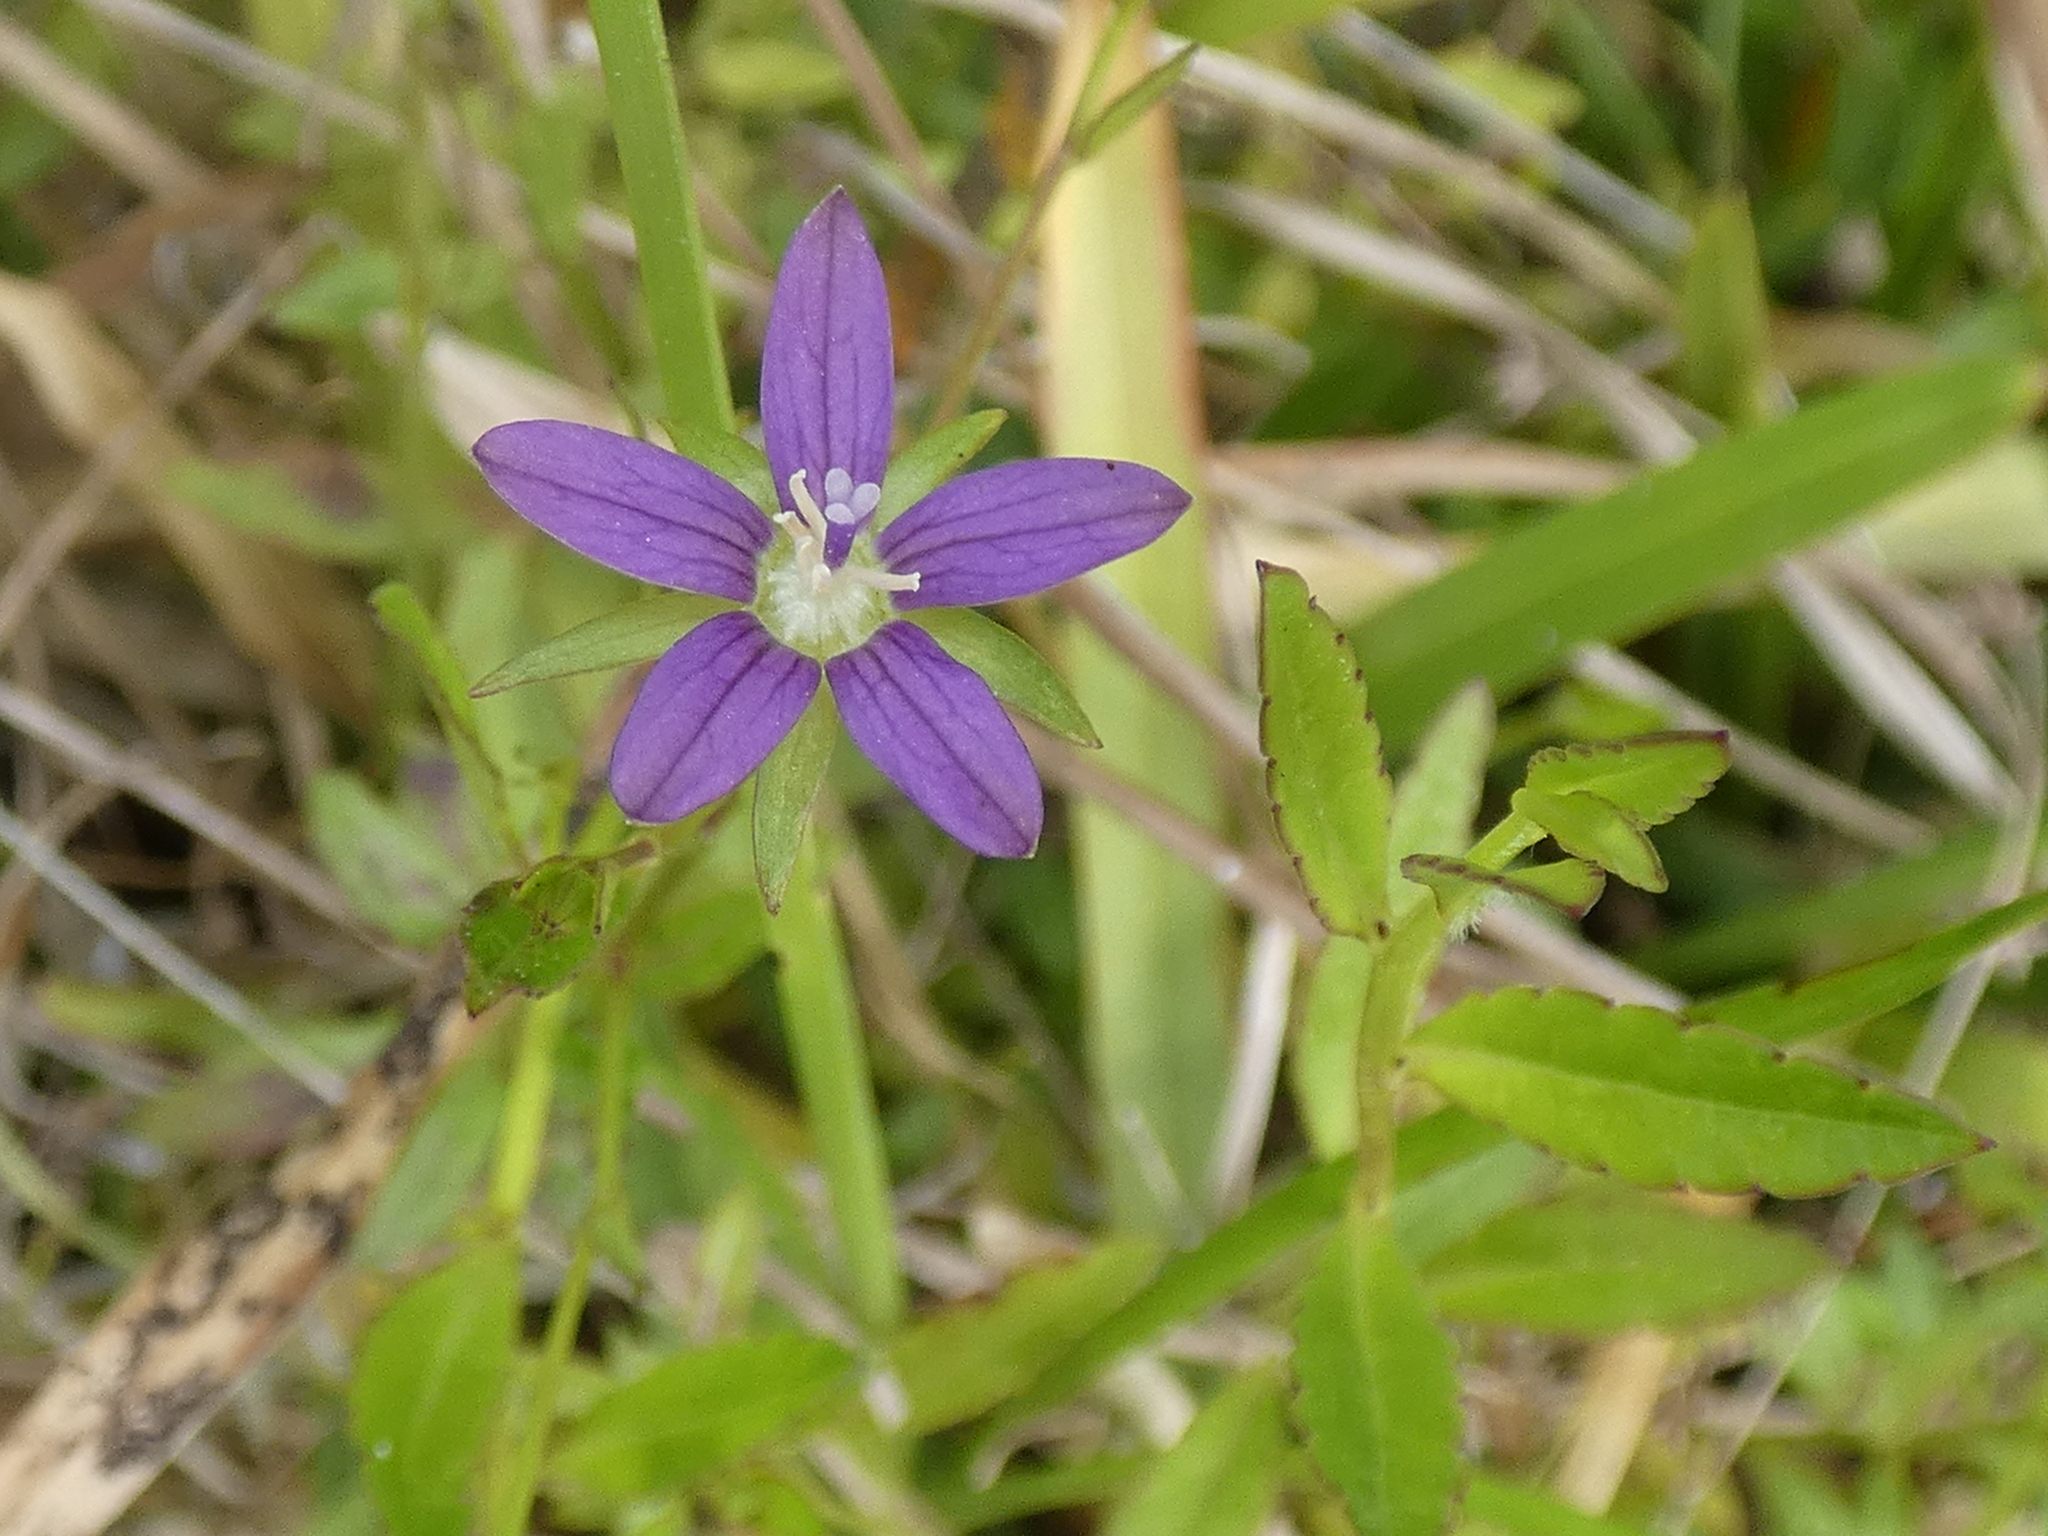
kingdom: Plantae
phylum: Tracheophyta
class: Magnoliopsida
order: Asterales
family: Campanulaceae
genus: Rotanthella
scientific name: Rotanthella floridana
